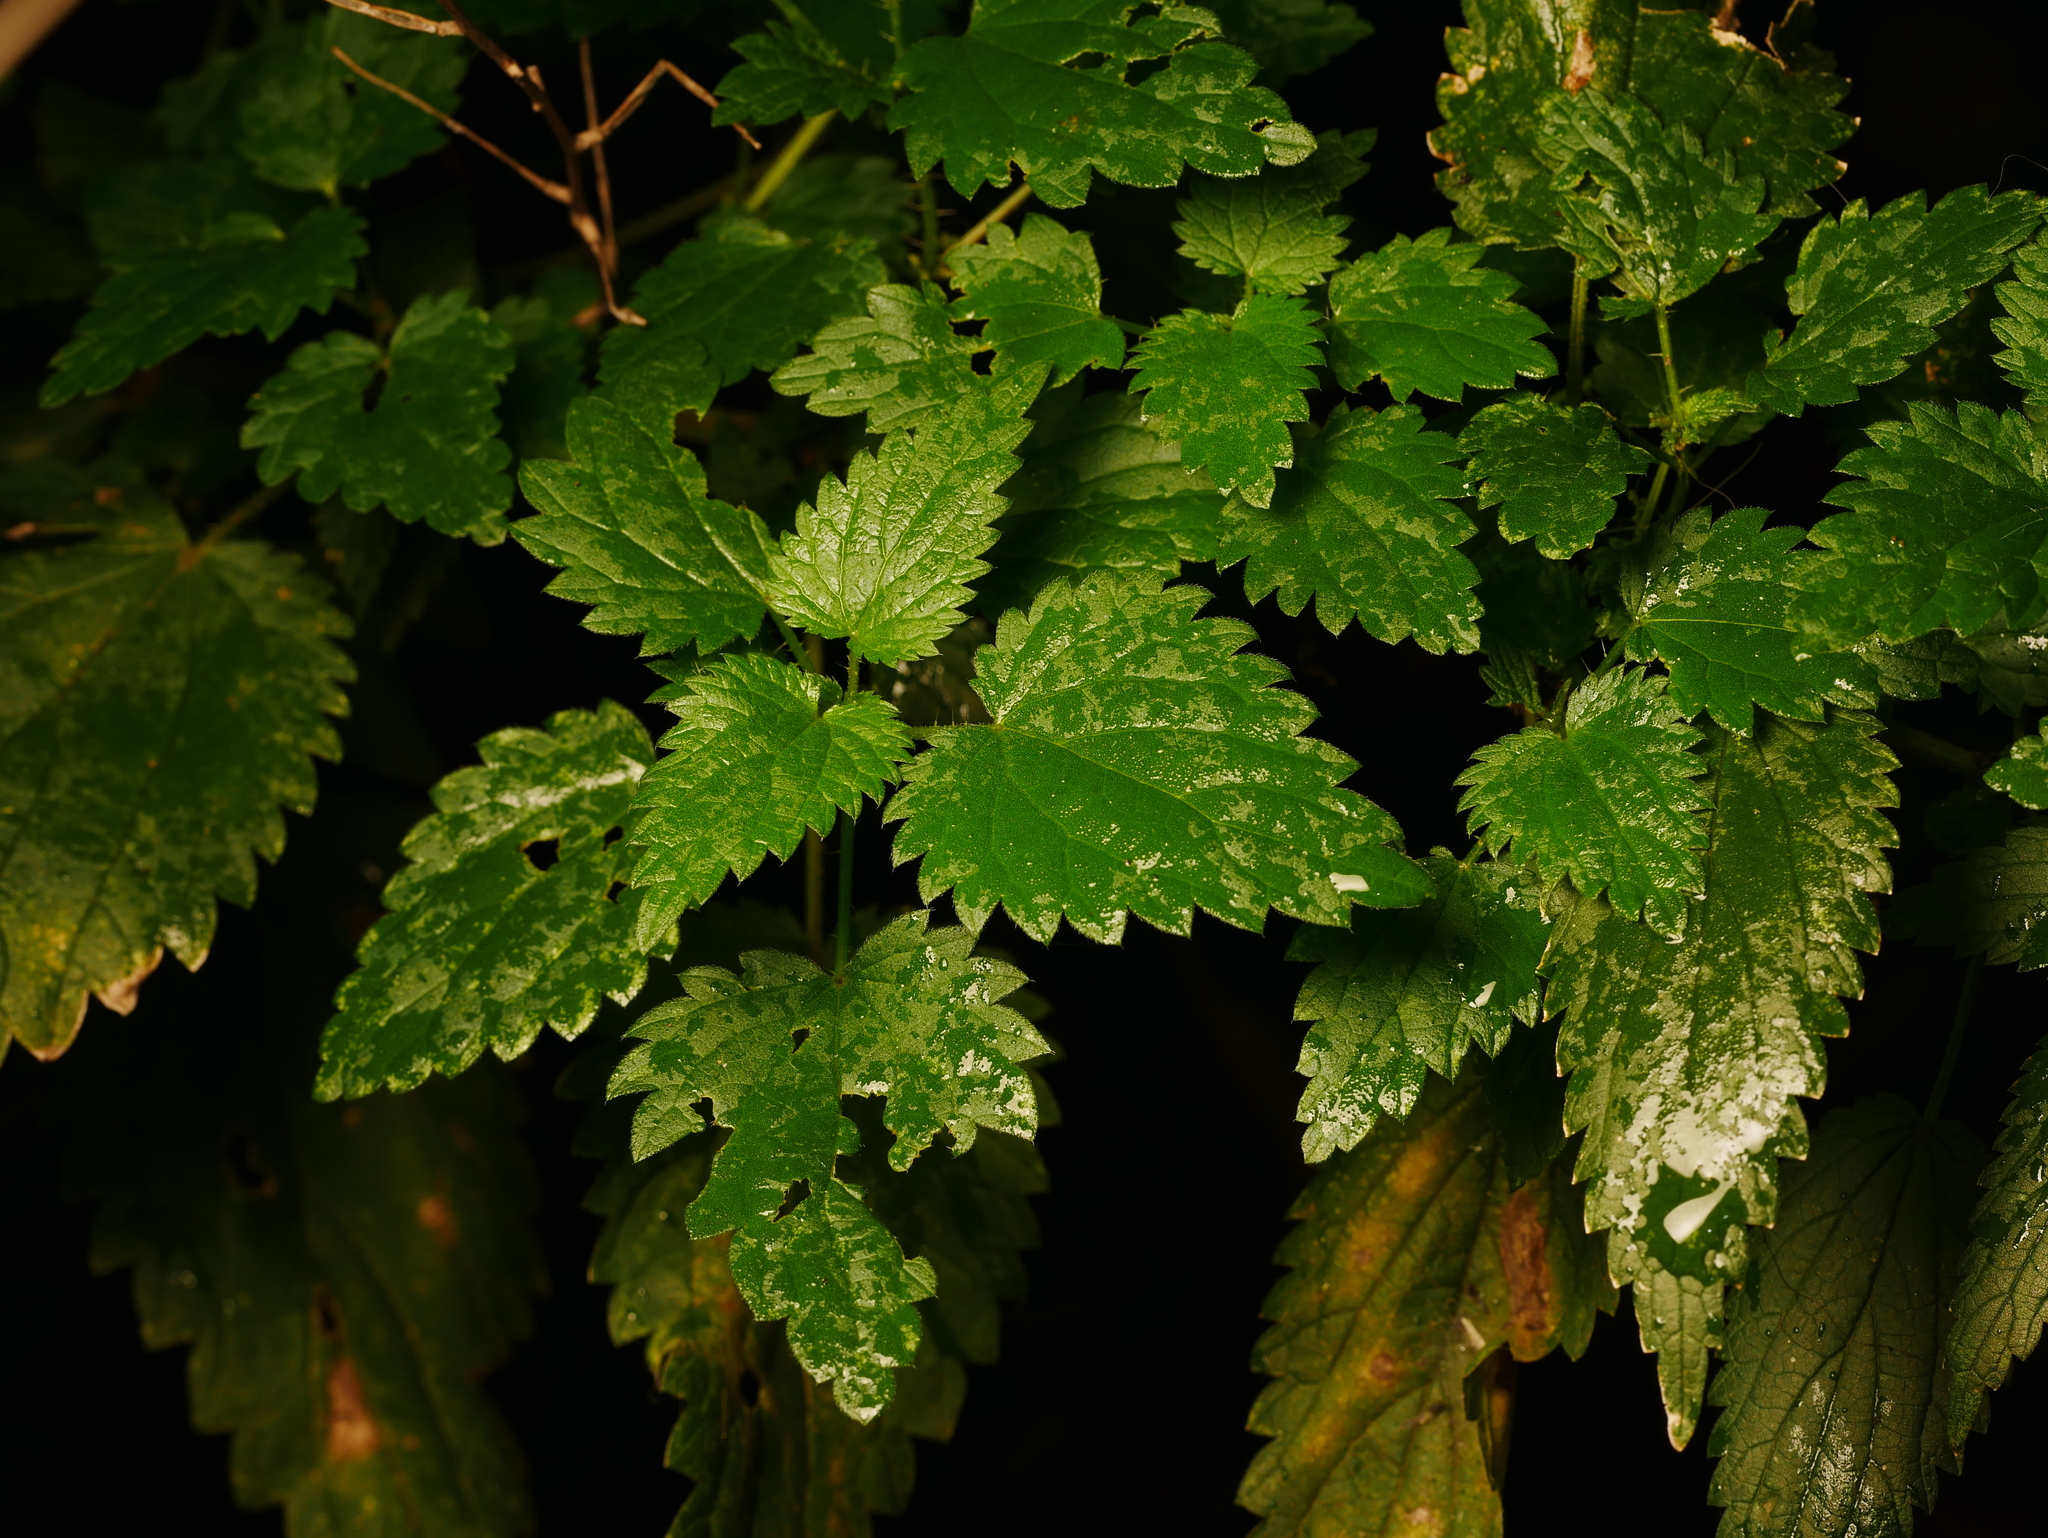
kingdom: Plantae
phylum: Tracheophyta
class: Magnoliopsida
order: Rosales
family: Urticaceae
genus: Urtica
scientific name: Urtica dioica
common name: Common nettle
